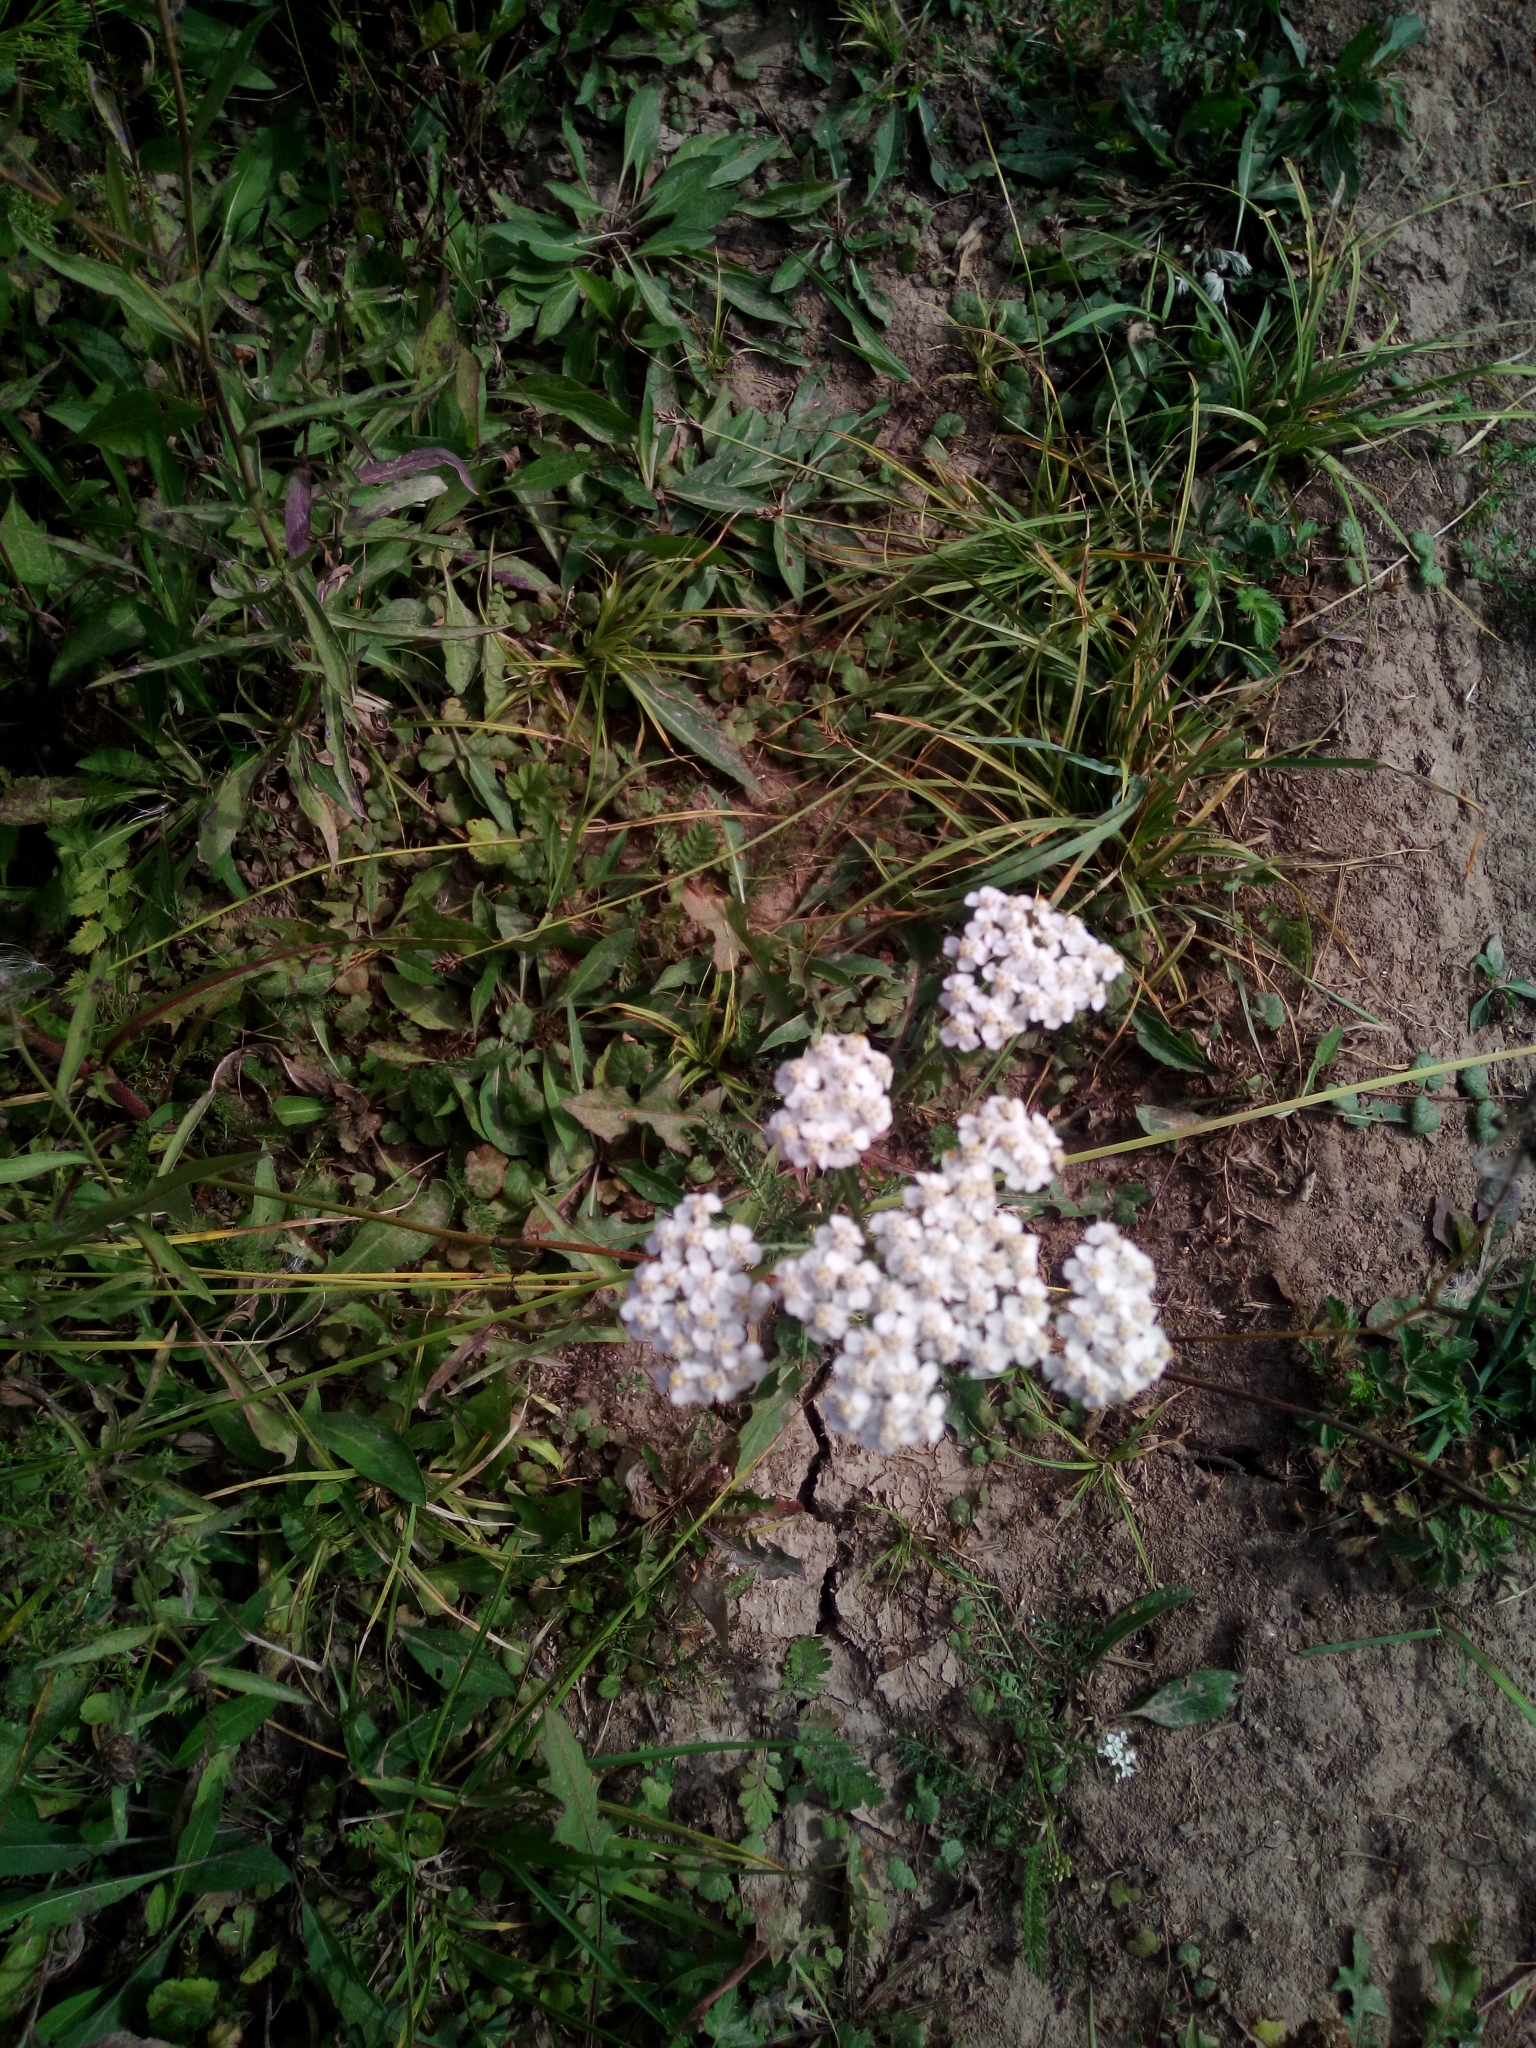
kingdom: Plantae
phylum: Tracheophyta
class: Magnoliopsida
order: Asterales
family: Asteraceae
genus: Achillea
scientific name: Achillea millefolium
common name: Yarrow
